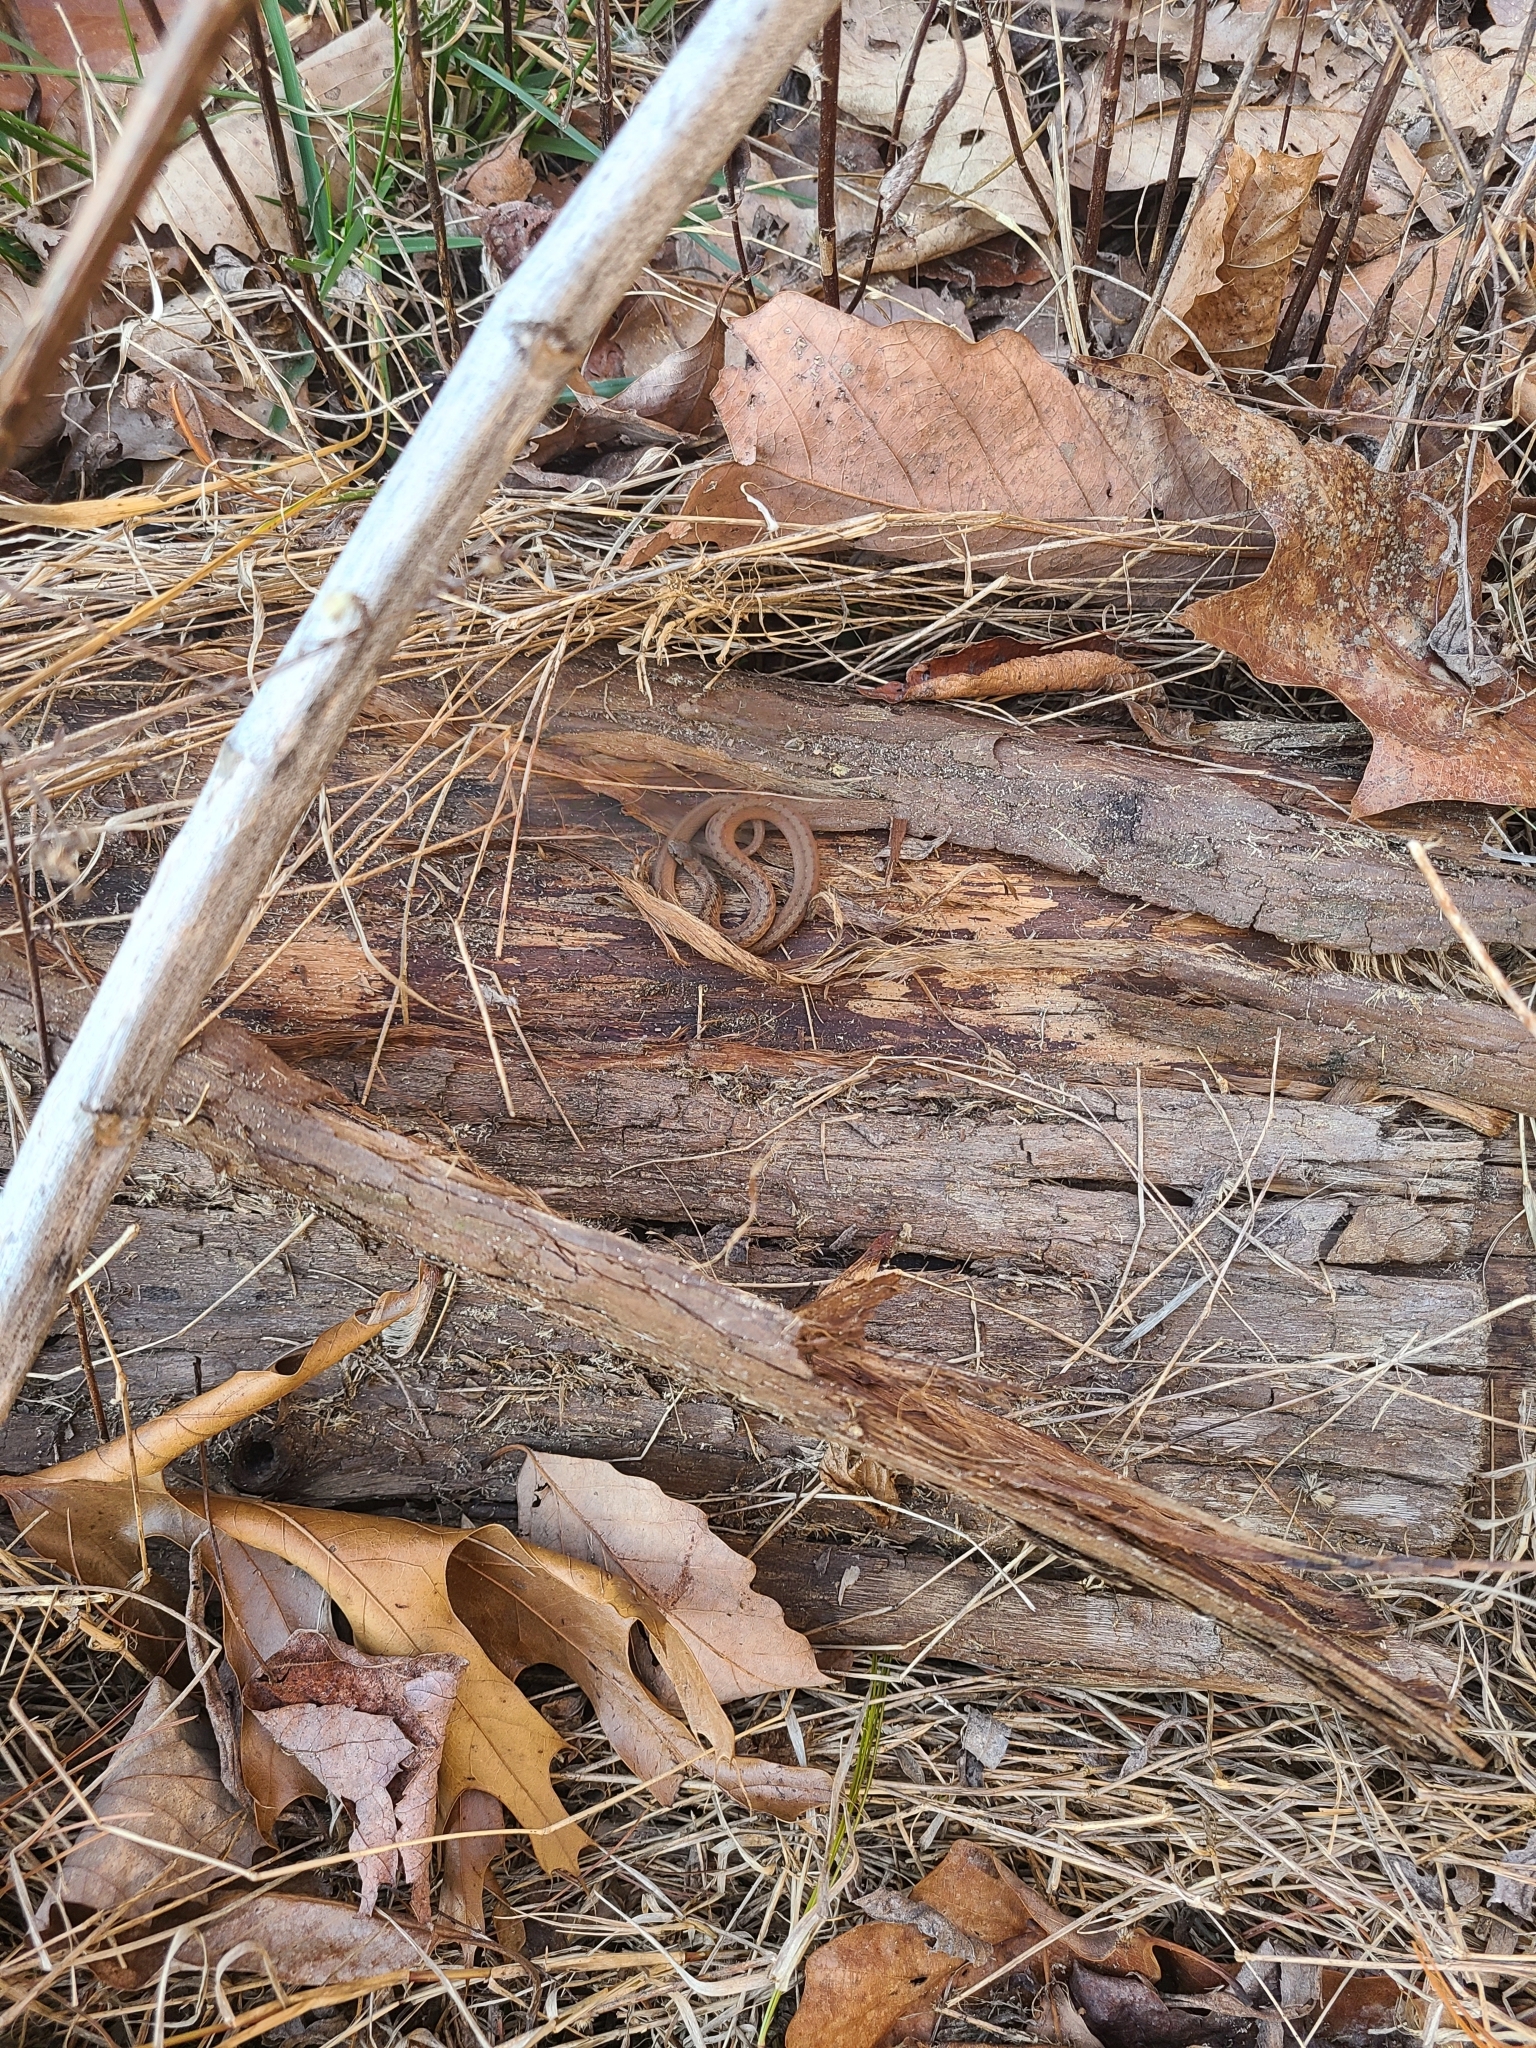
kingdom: Animalia
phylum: Chordata
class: Squamata
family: Colubridae
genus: Storeria
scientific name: Storeria dekayi
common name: (dekay’s) brown snake
